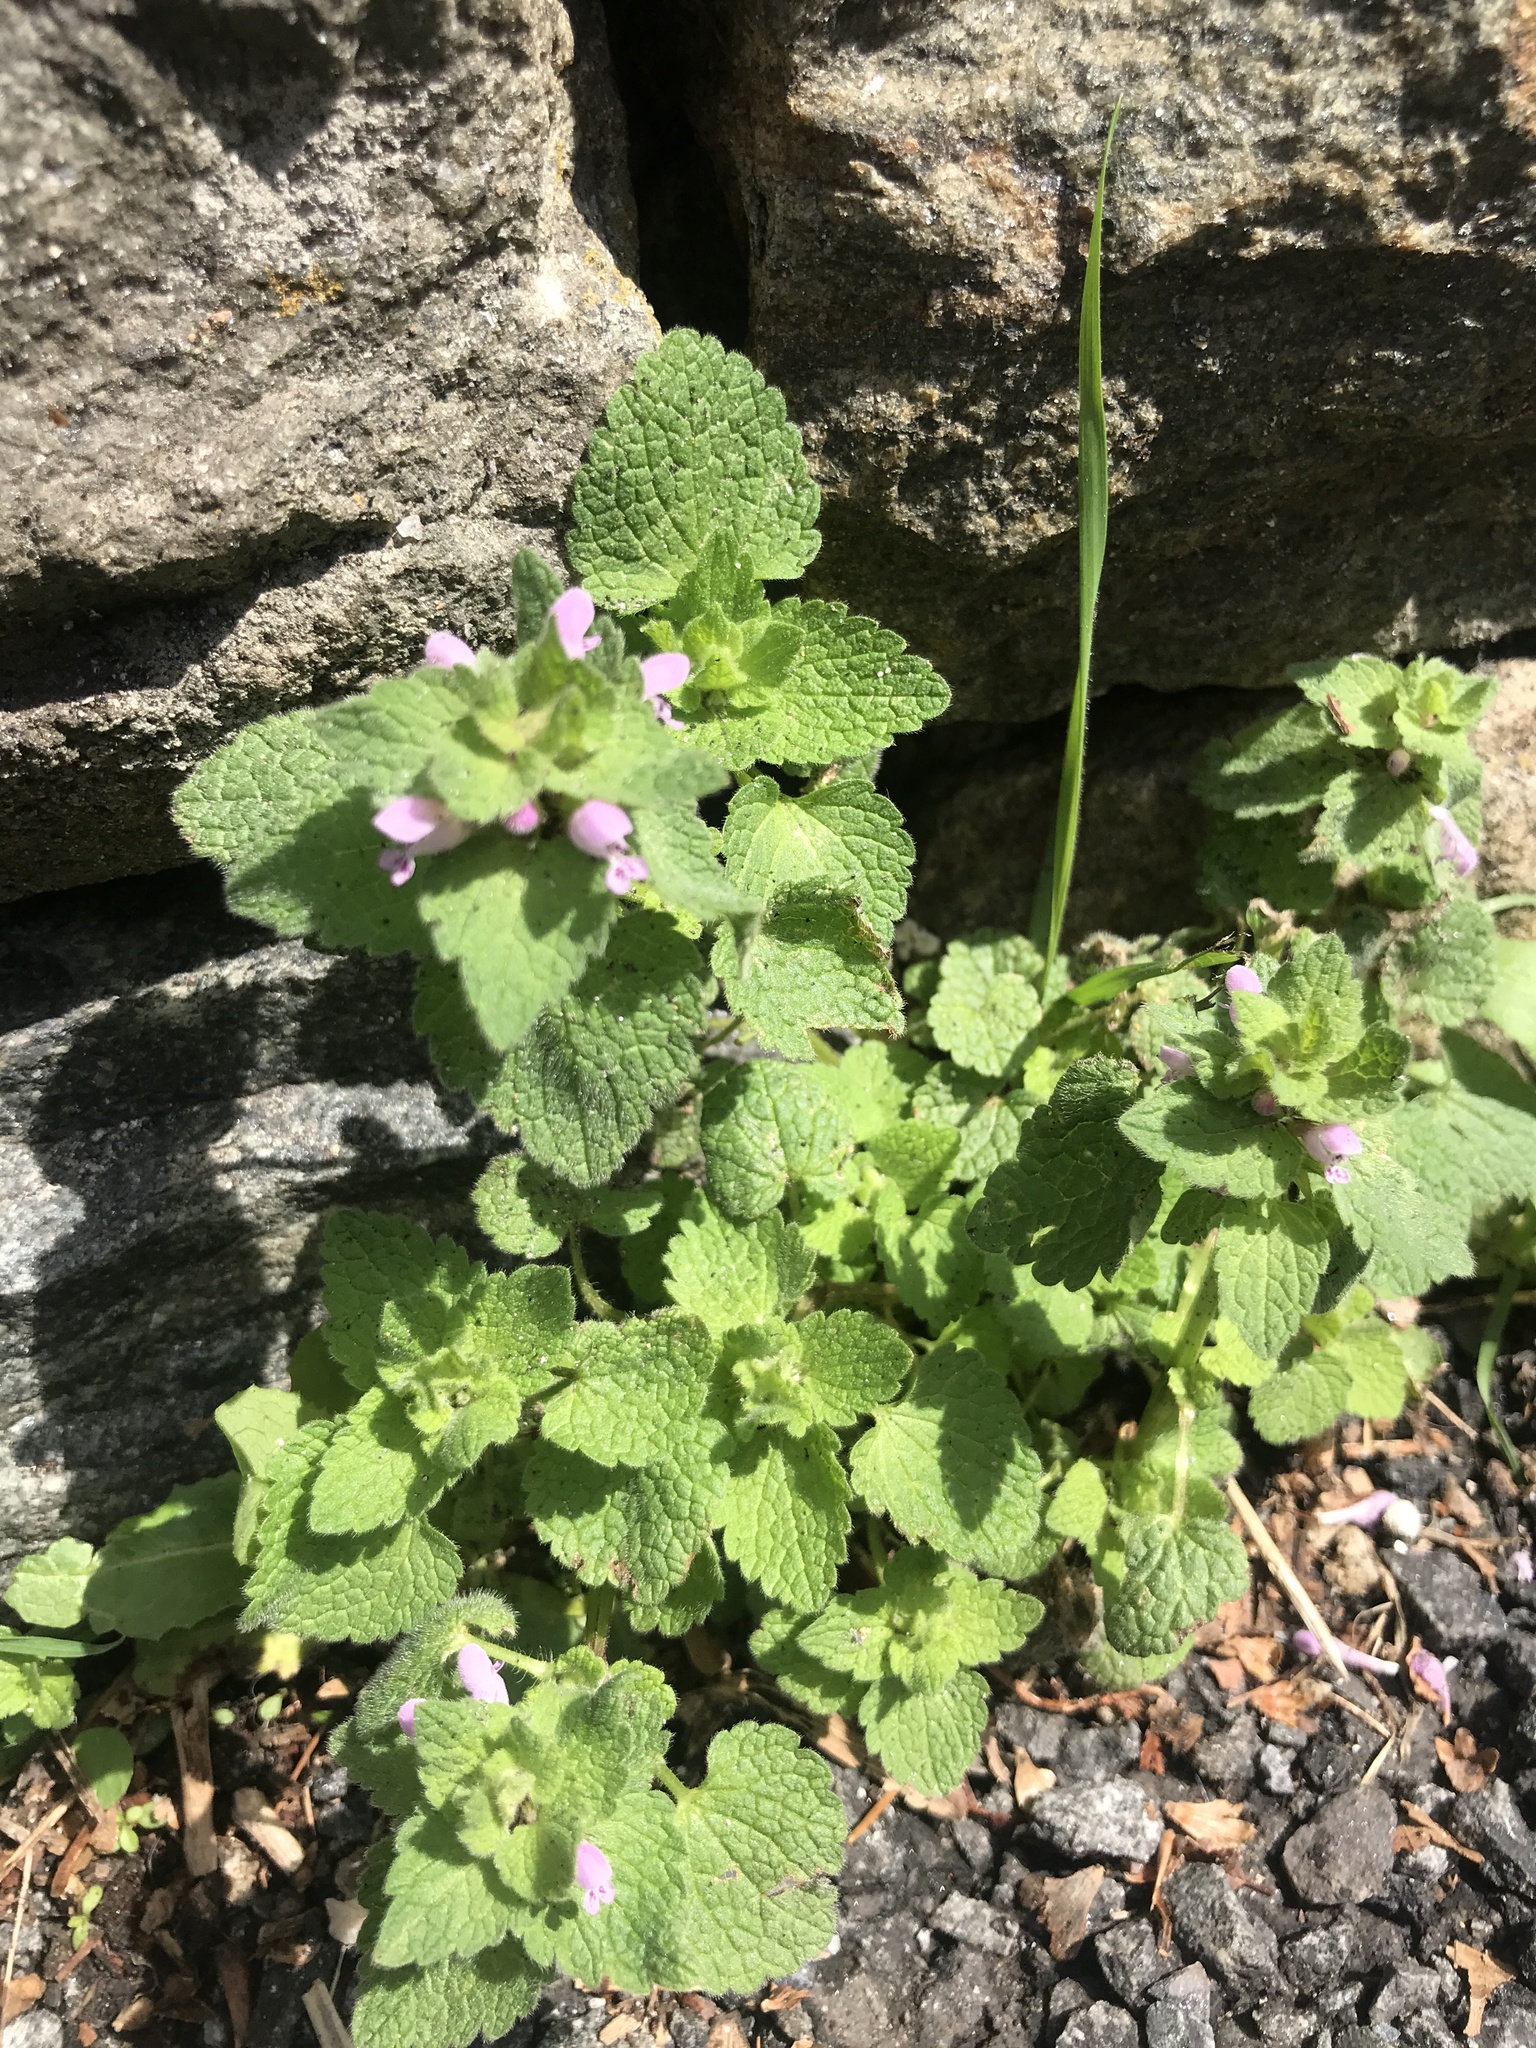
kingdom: Plantae
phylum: Tracheophyta
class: Magnoliopsida
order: Lamiales
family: Lamiaceae
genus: Lamium
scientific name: Lamium purpureum
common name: Red dead-nettle
